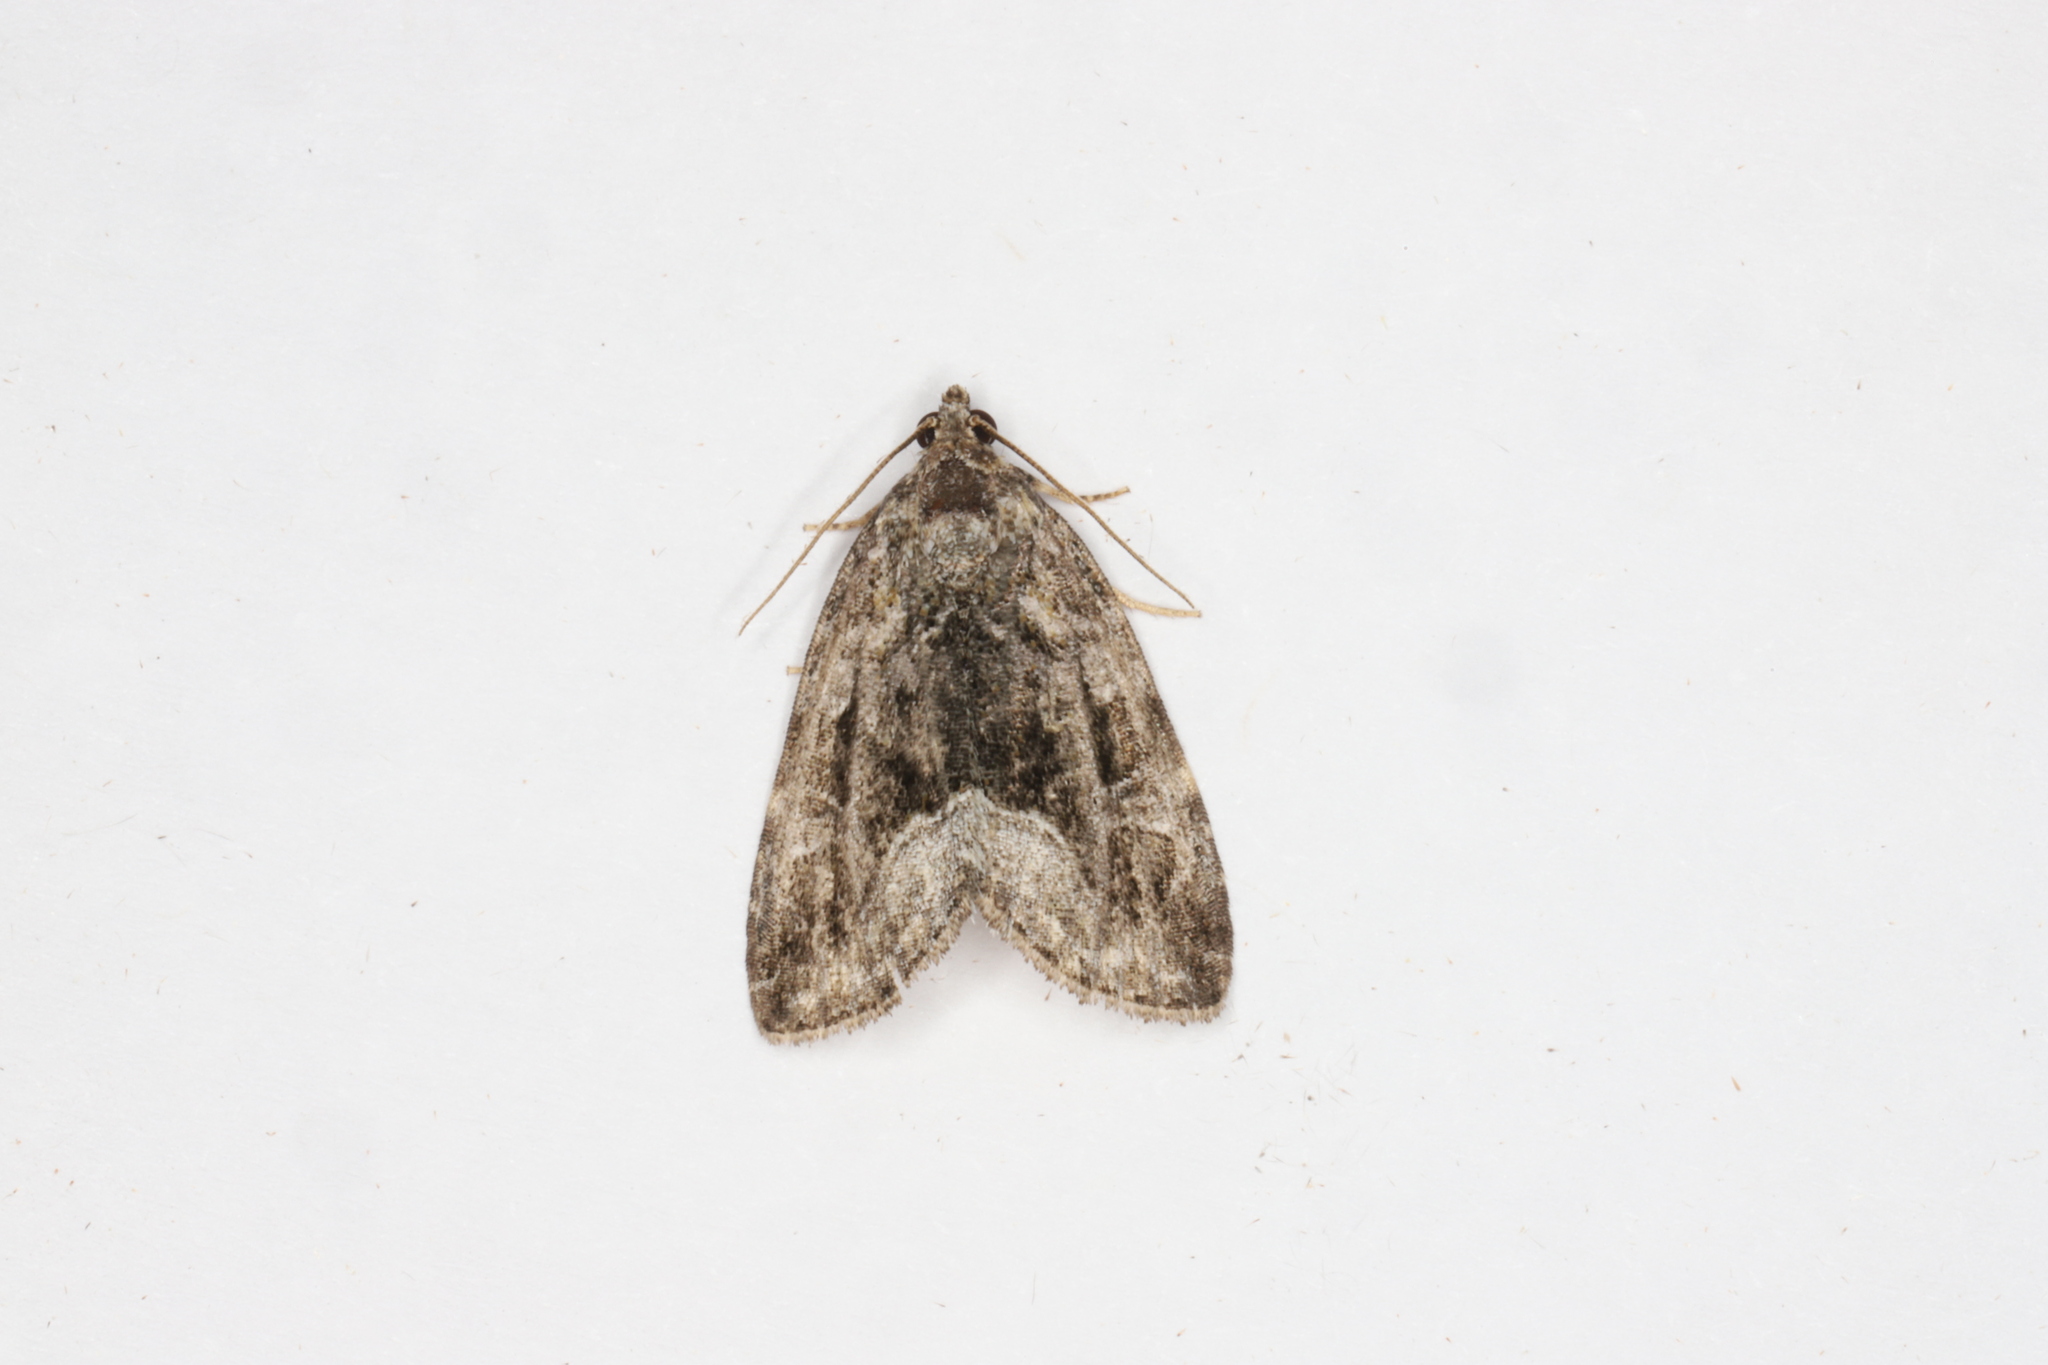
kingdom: Animalia
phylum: Arthropoda
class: Insecta
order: Lepidoptera
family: Noctuidae
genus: Protodeltote
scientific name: Protodeltote muscosula
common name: Large mossy glyph
